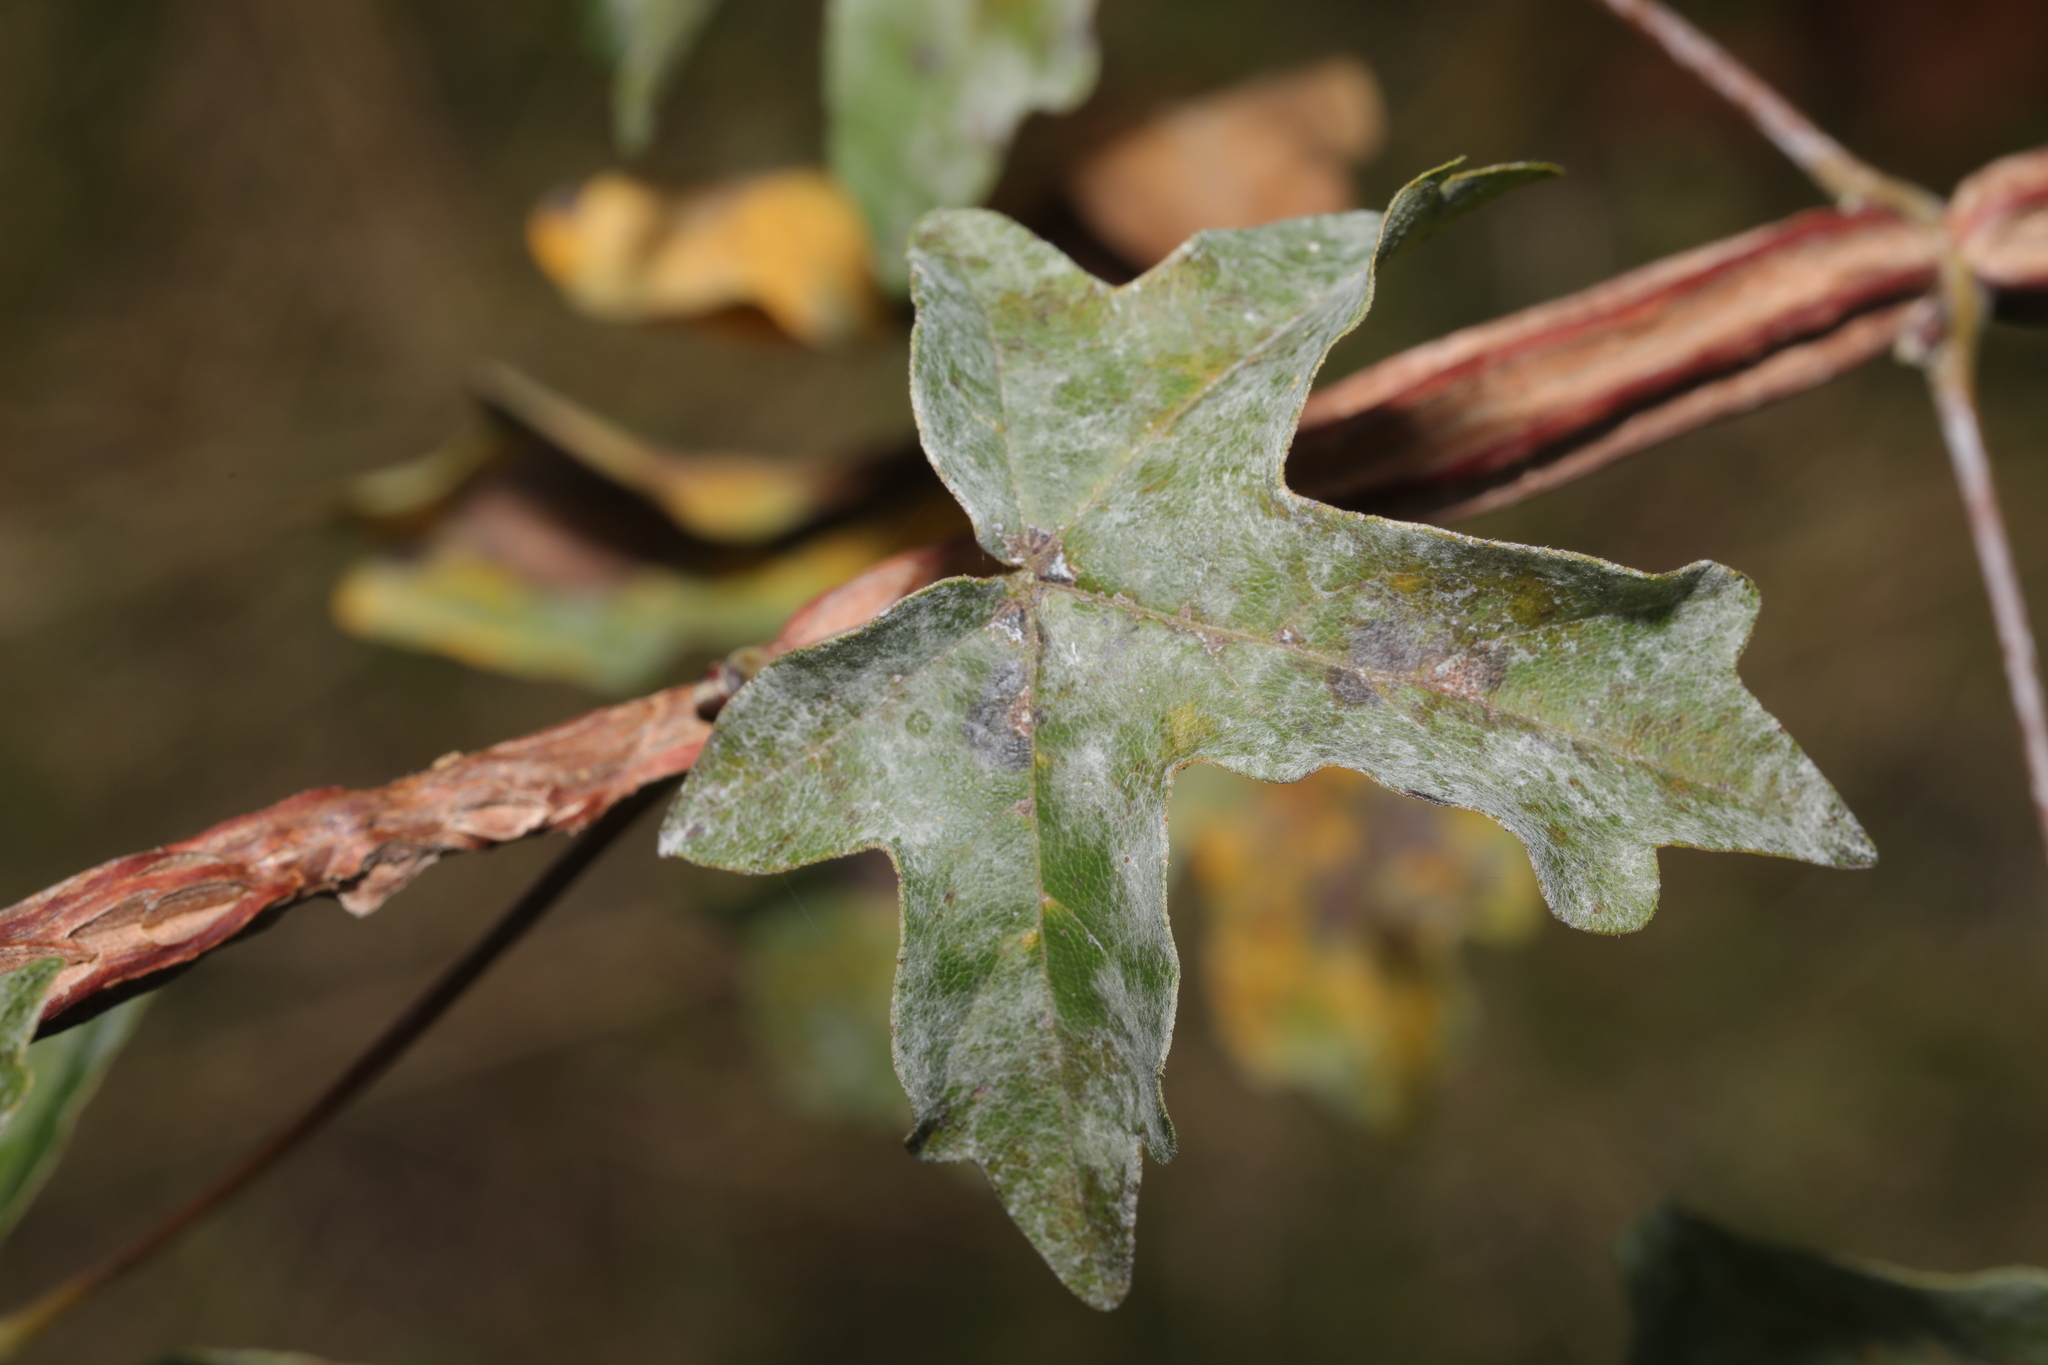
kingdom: Fungi
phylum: Ascomycota
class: Leotiomycetes
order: Helotiales
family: Erysiphaceae
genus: Sawadaea
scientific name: Sawadaea bicornis
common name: Maple mildew
